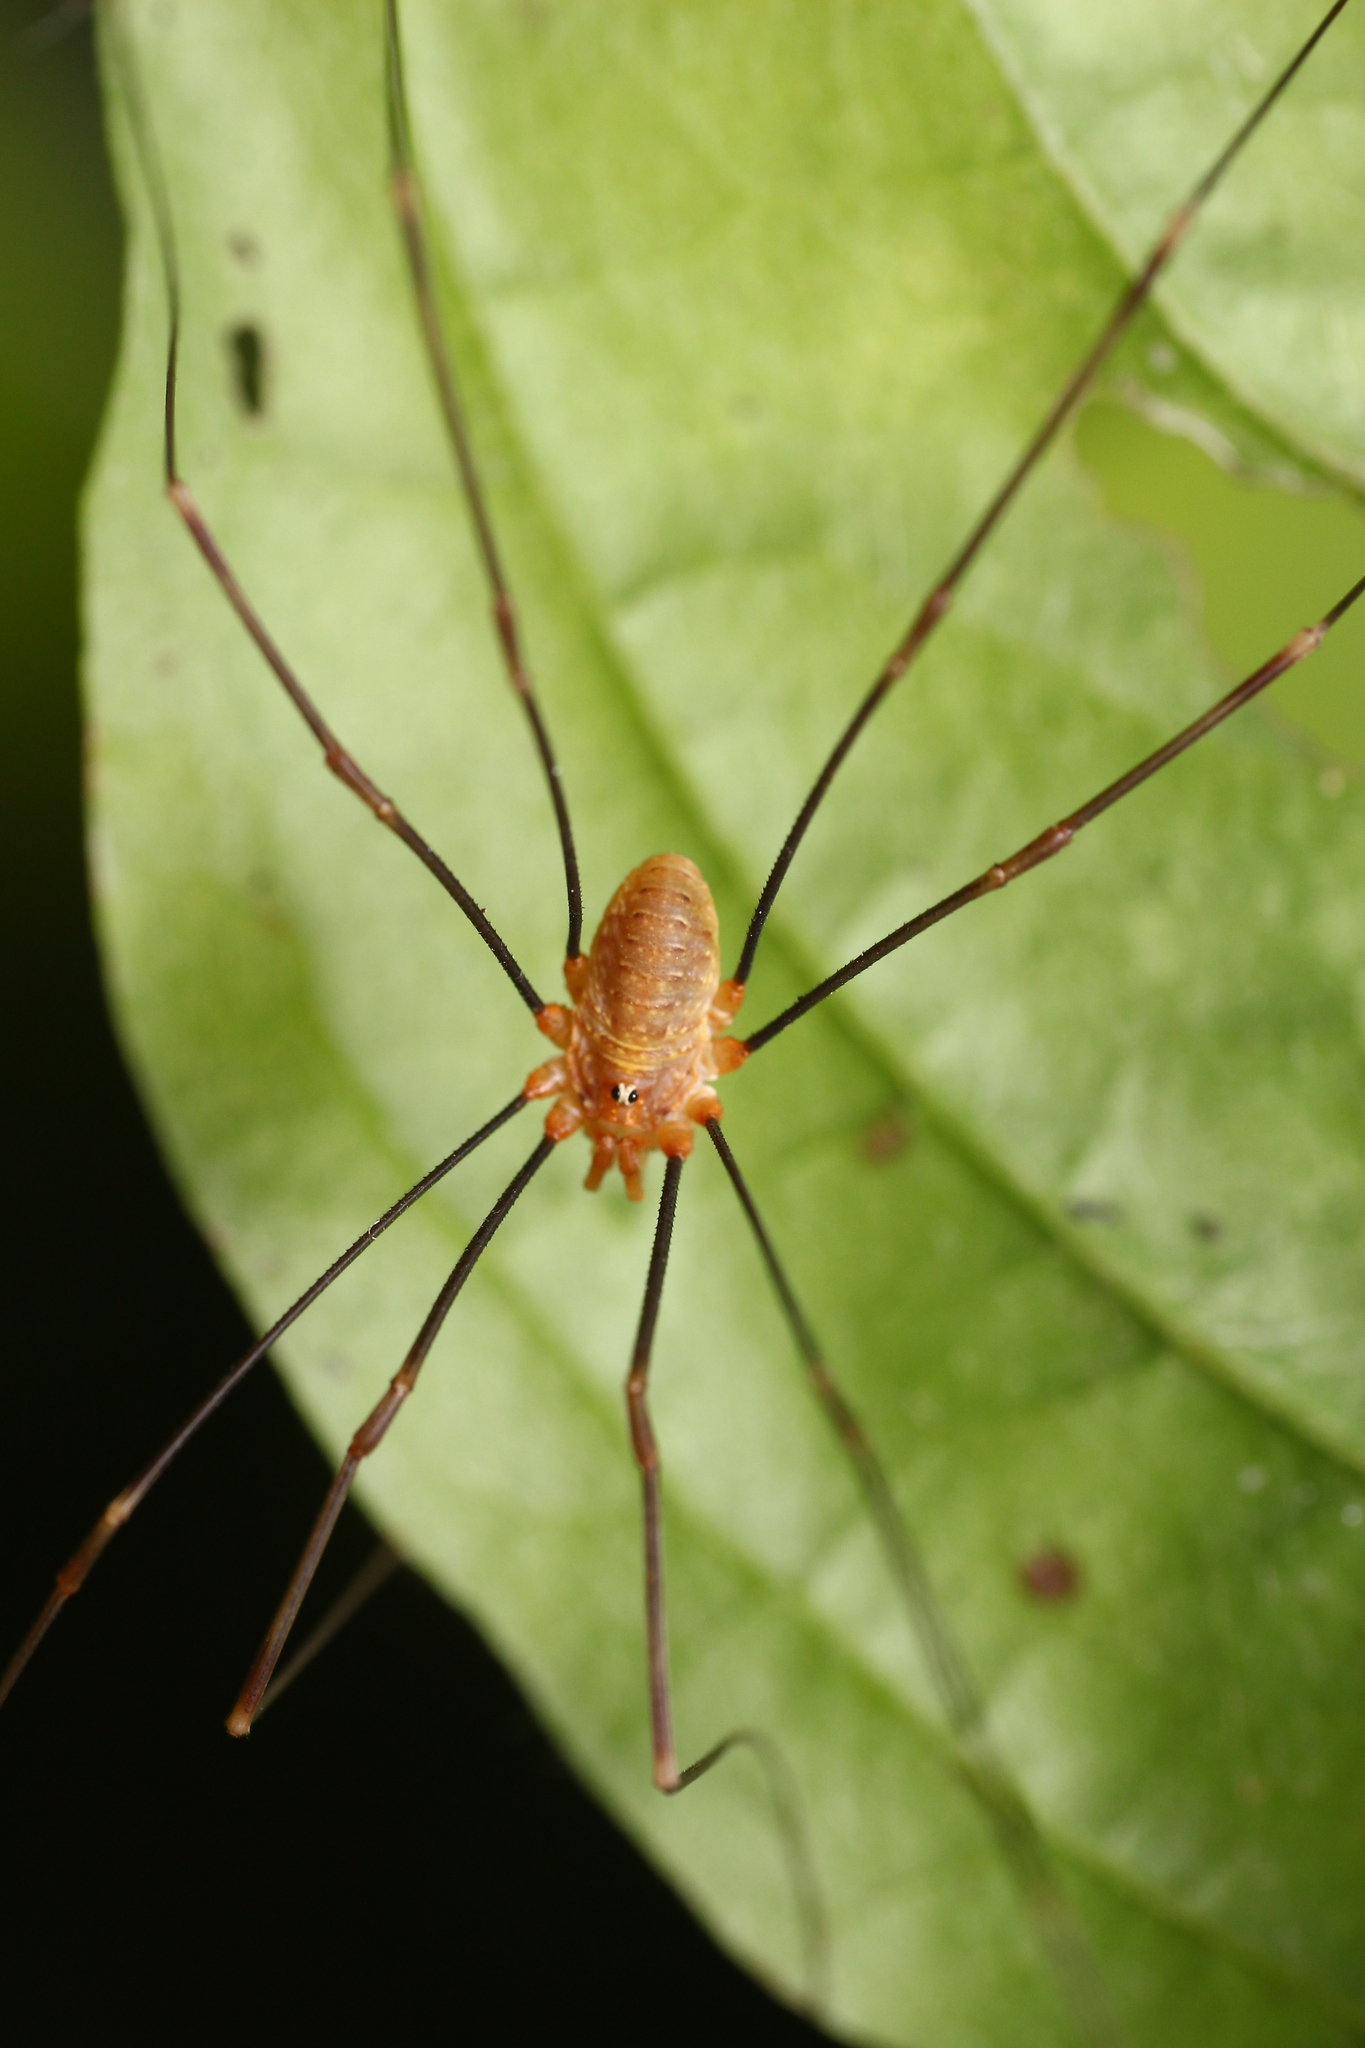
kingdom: Animalia
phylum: Arthropoda
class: Arachnida
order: Opiliones
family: Phalangiidae
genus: Opilio
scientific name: Opilio canestrinii
